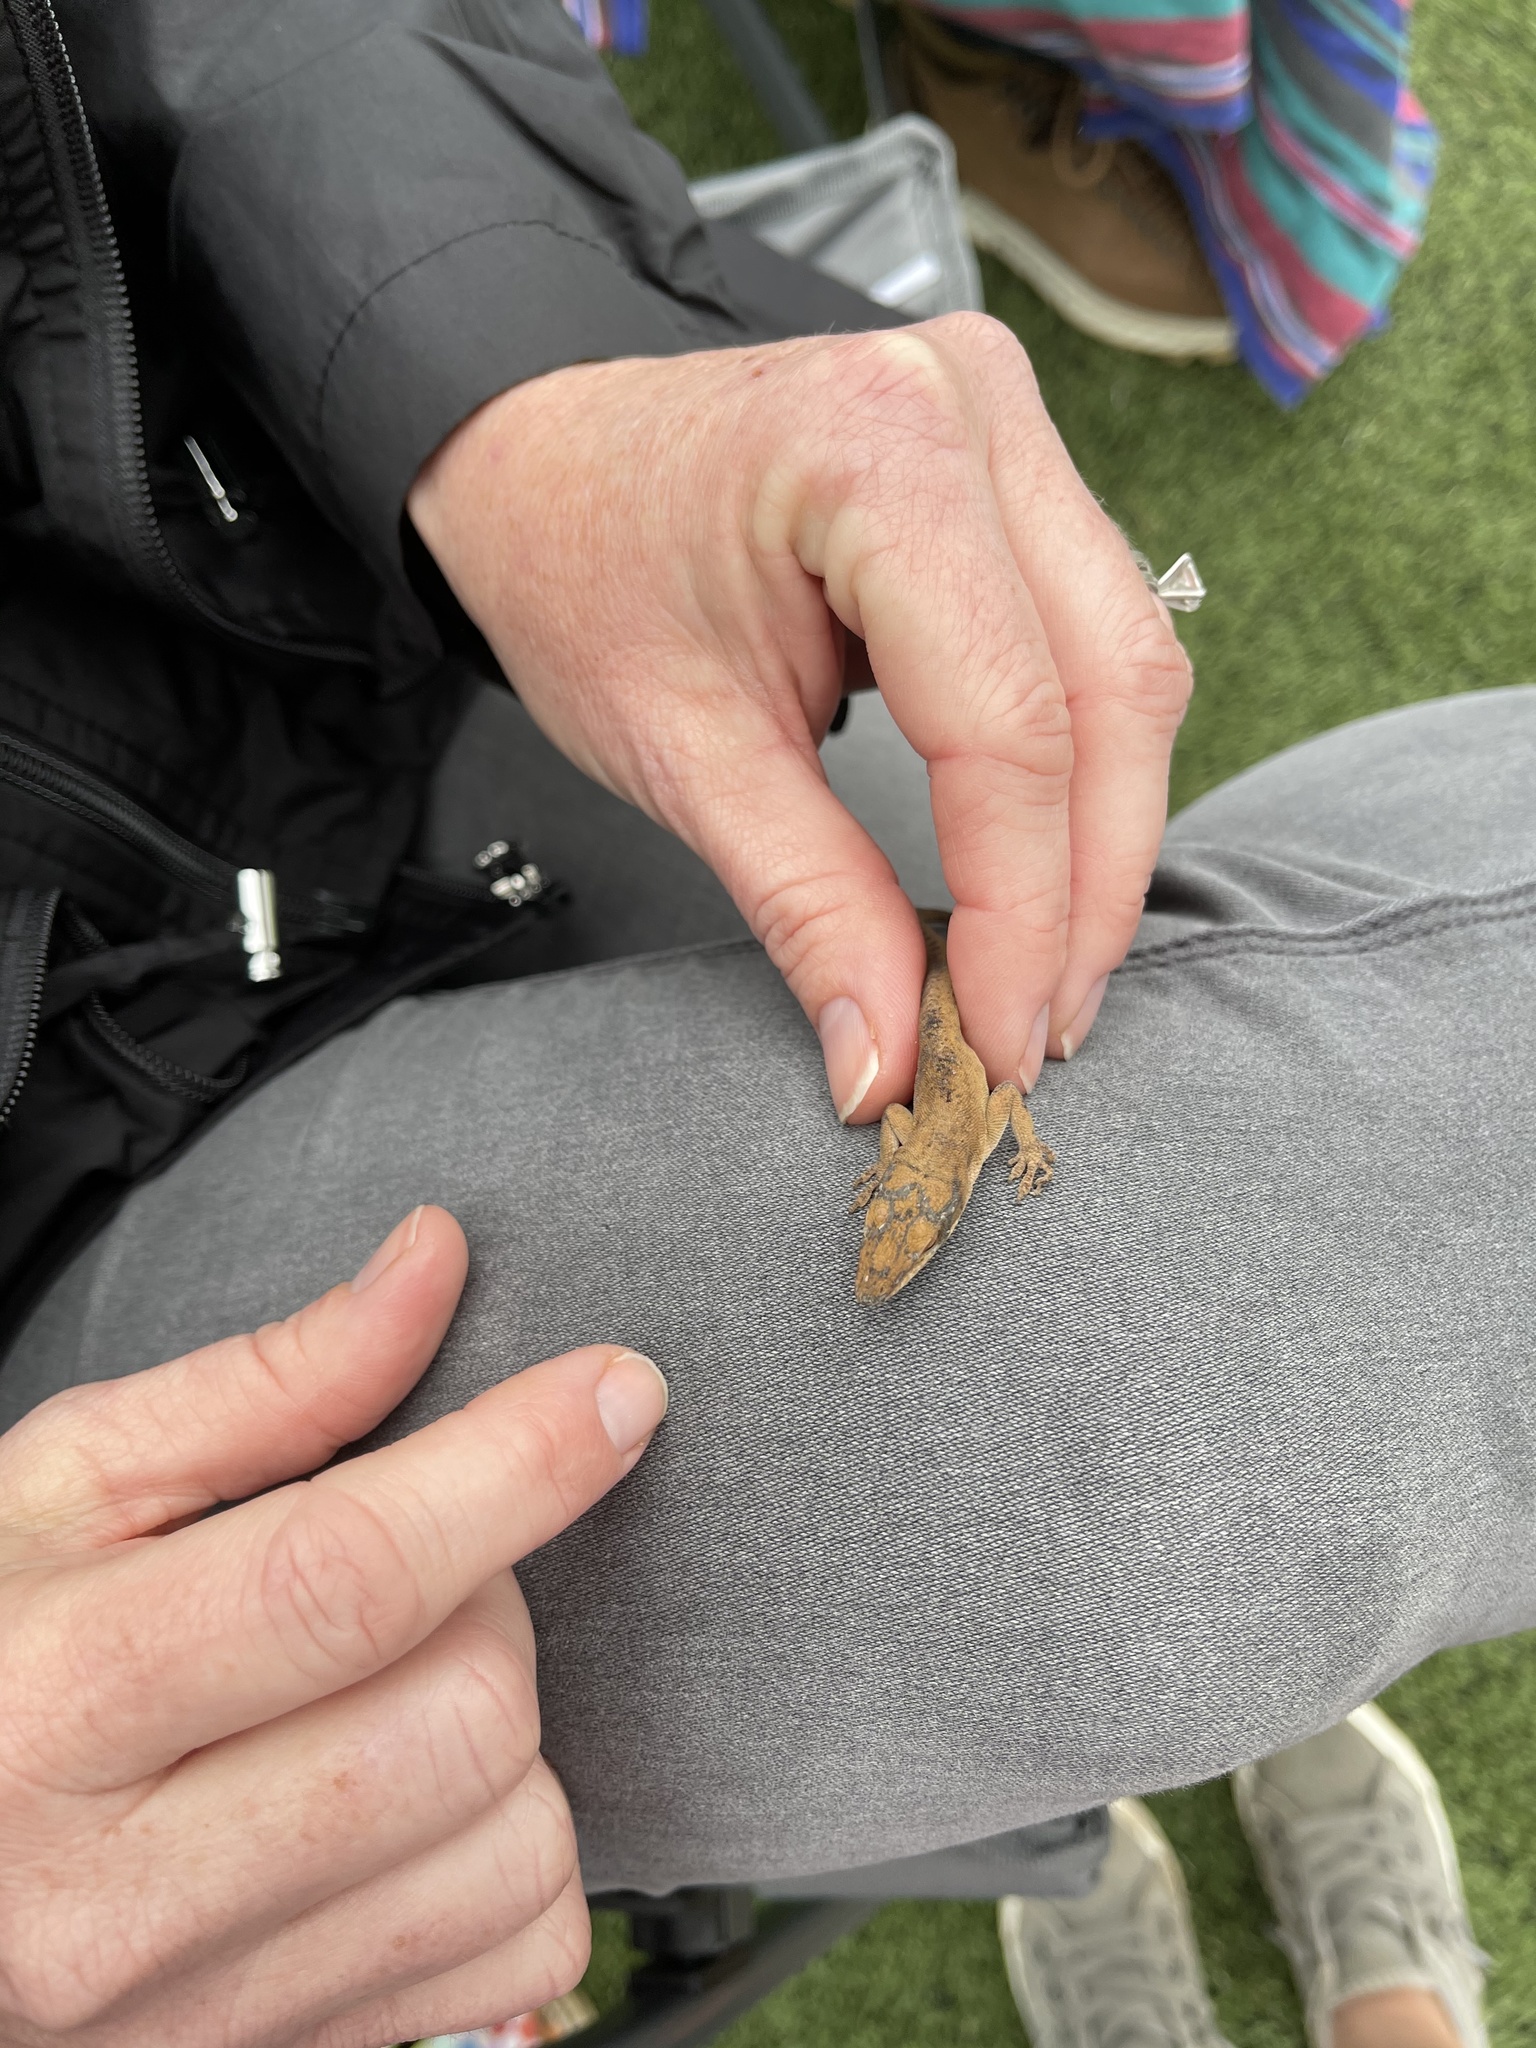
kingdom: Animalia
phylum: Chordata
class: Squamata
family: Dactyloidae
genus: Anolis
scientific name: Anolis carolinensis
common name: Green anole
